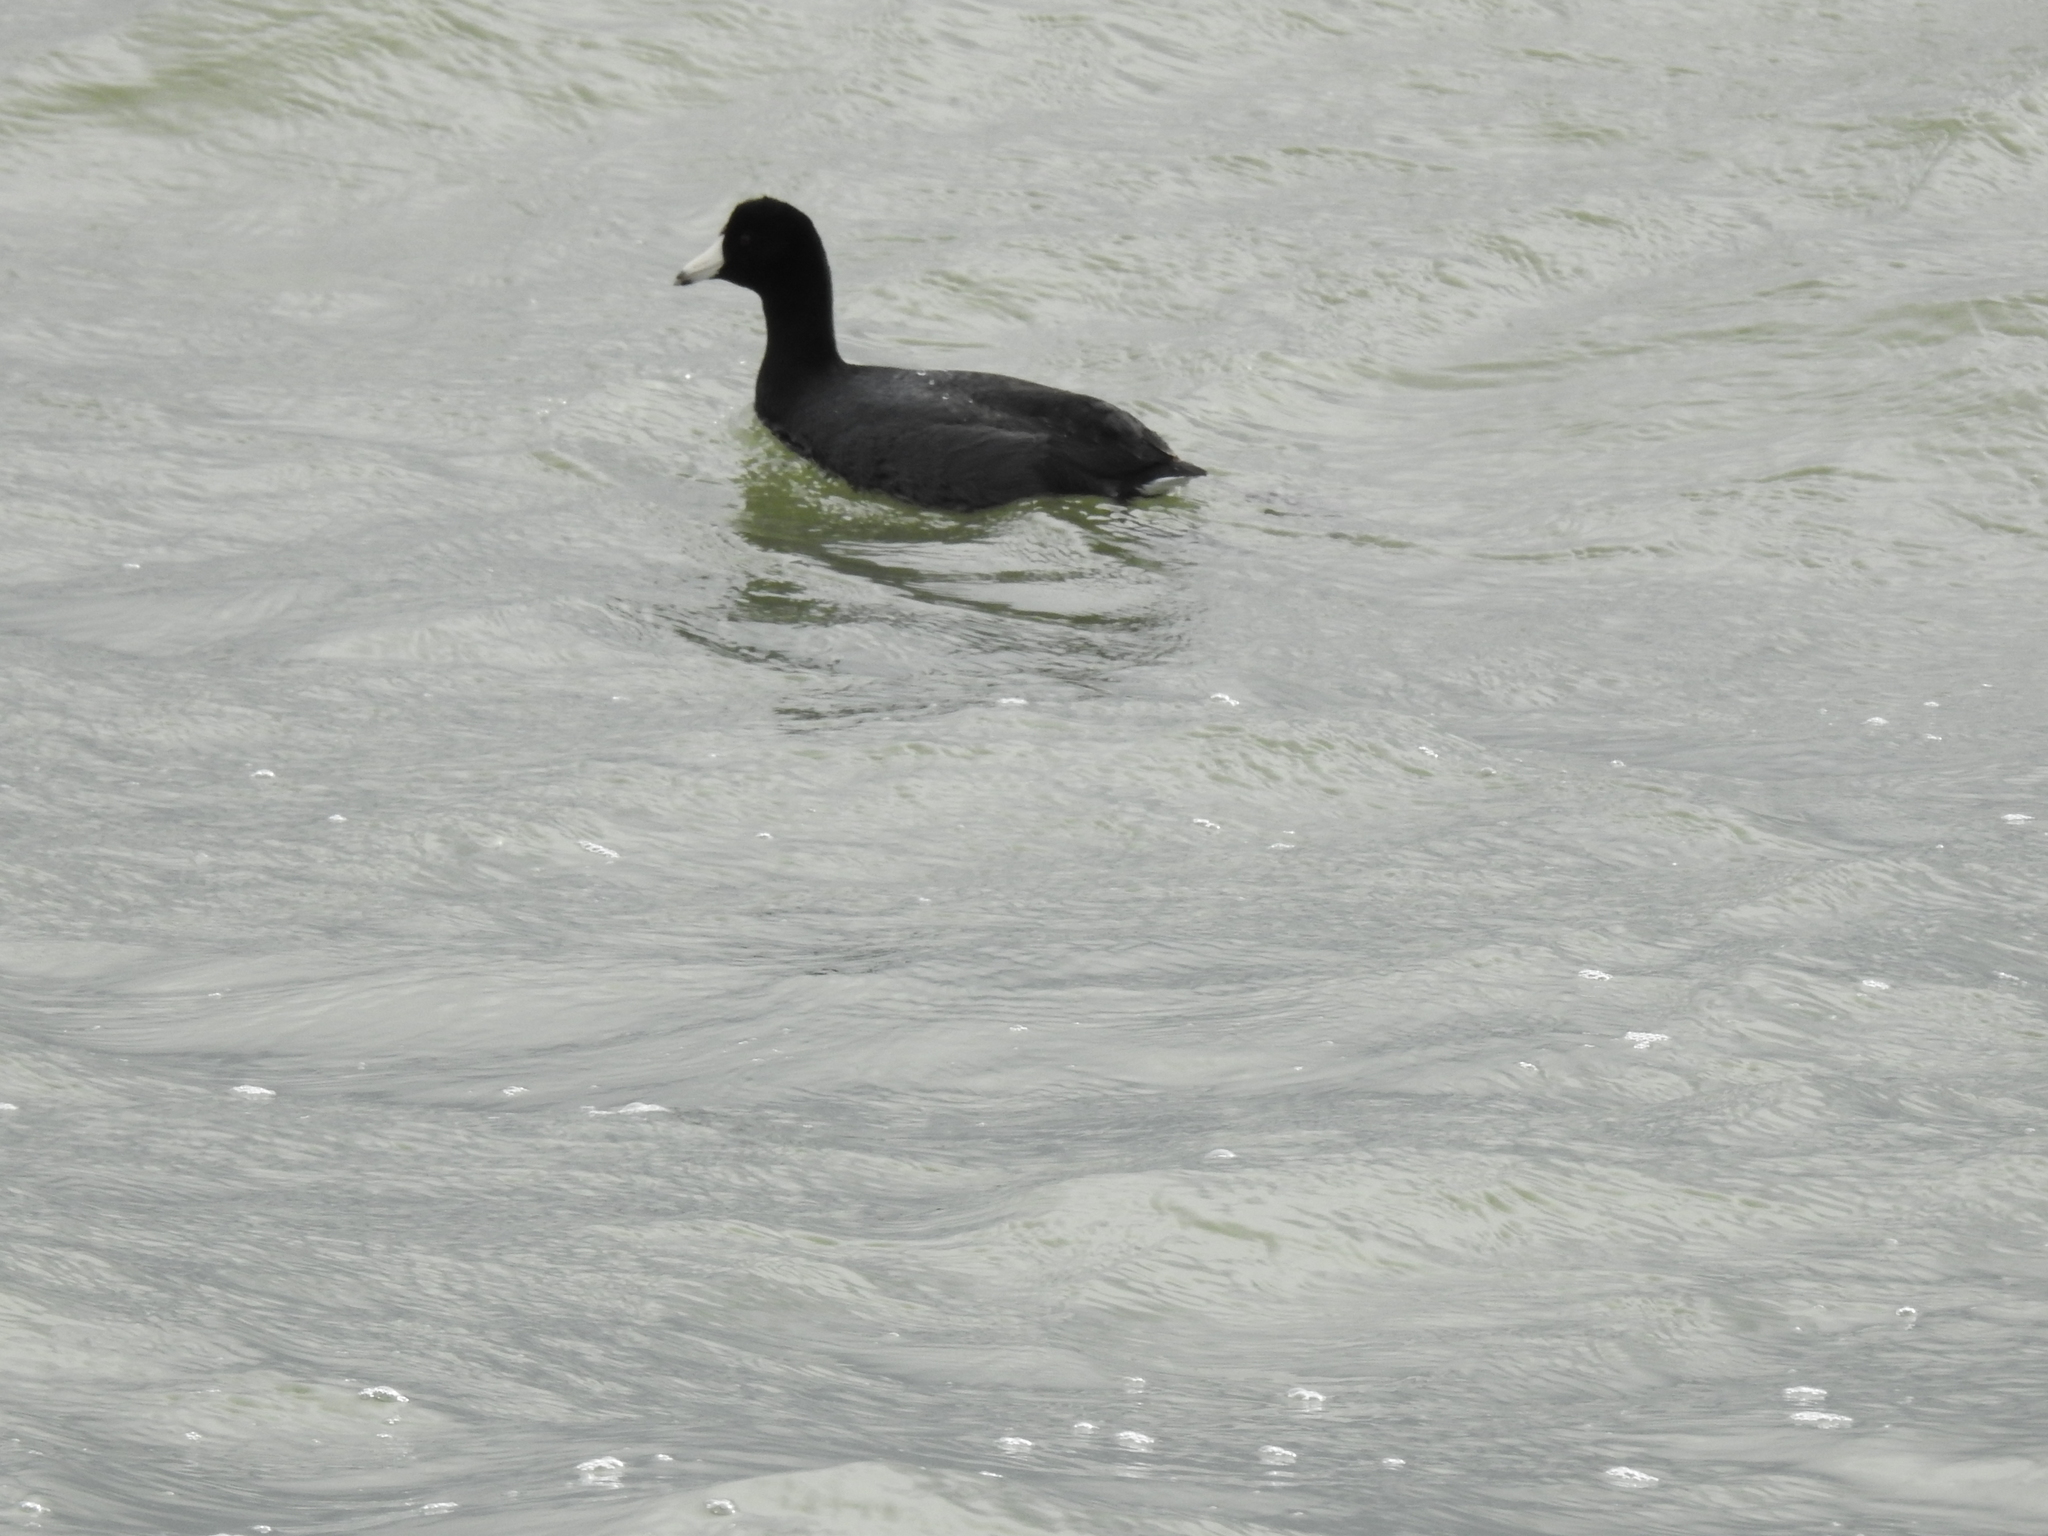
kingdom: Animalia
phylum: Chordata
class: Aves
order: Gruiformes
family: Rallidae
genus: Fulica
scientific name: Fulica americana
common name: American coot
